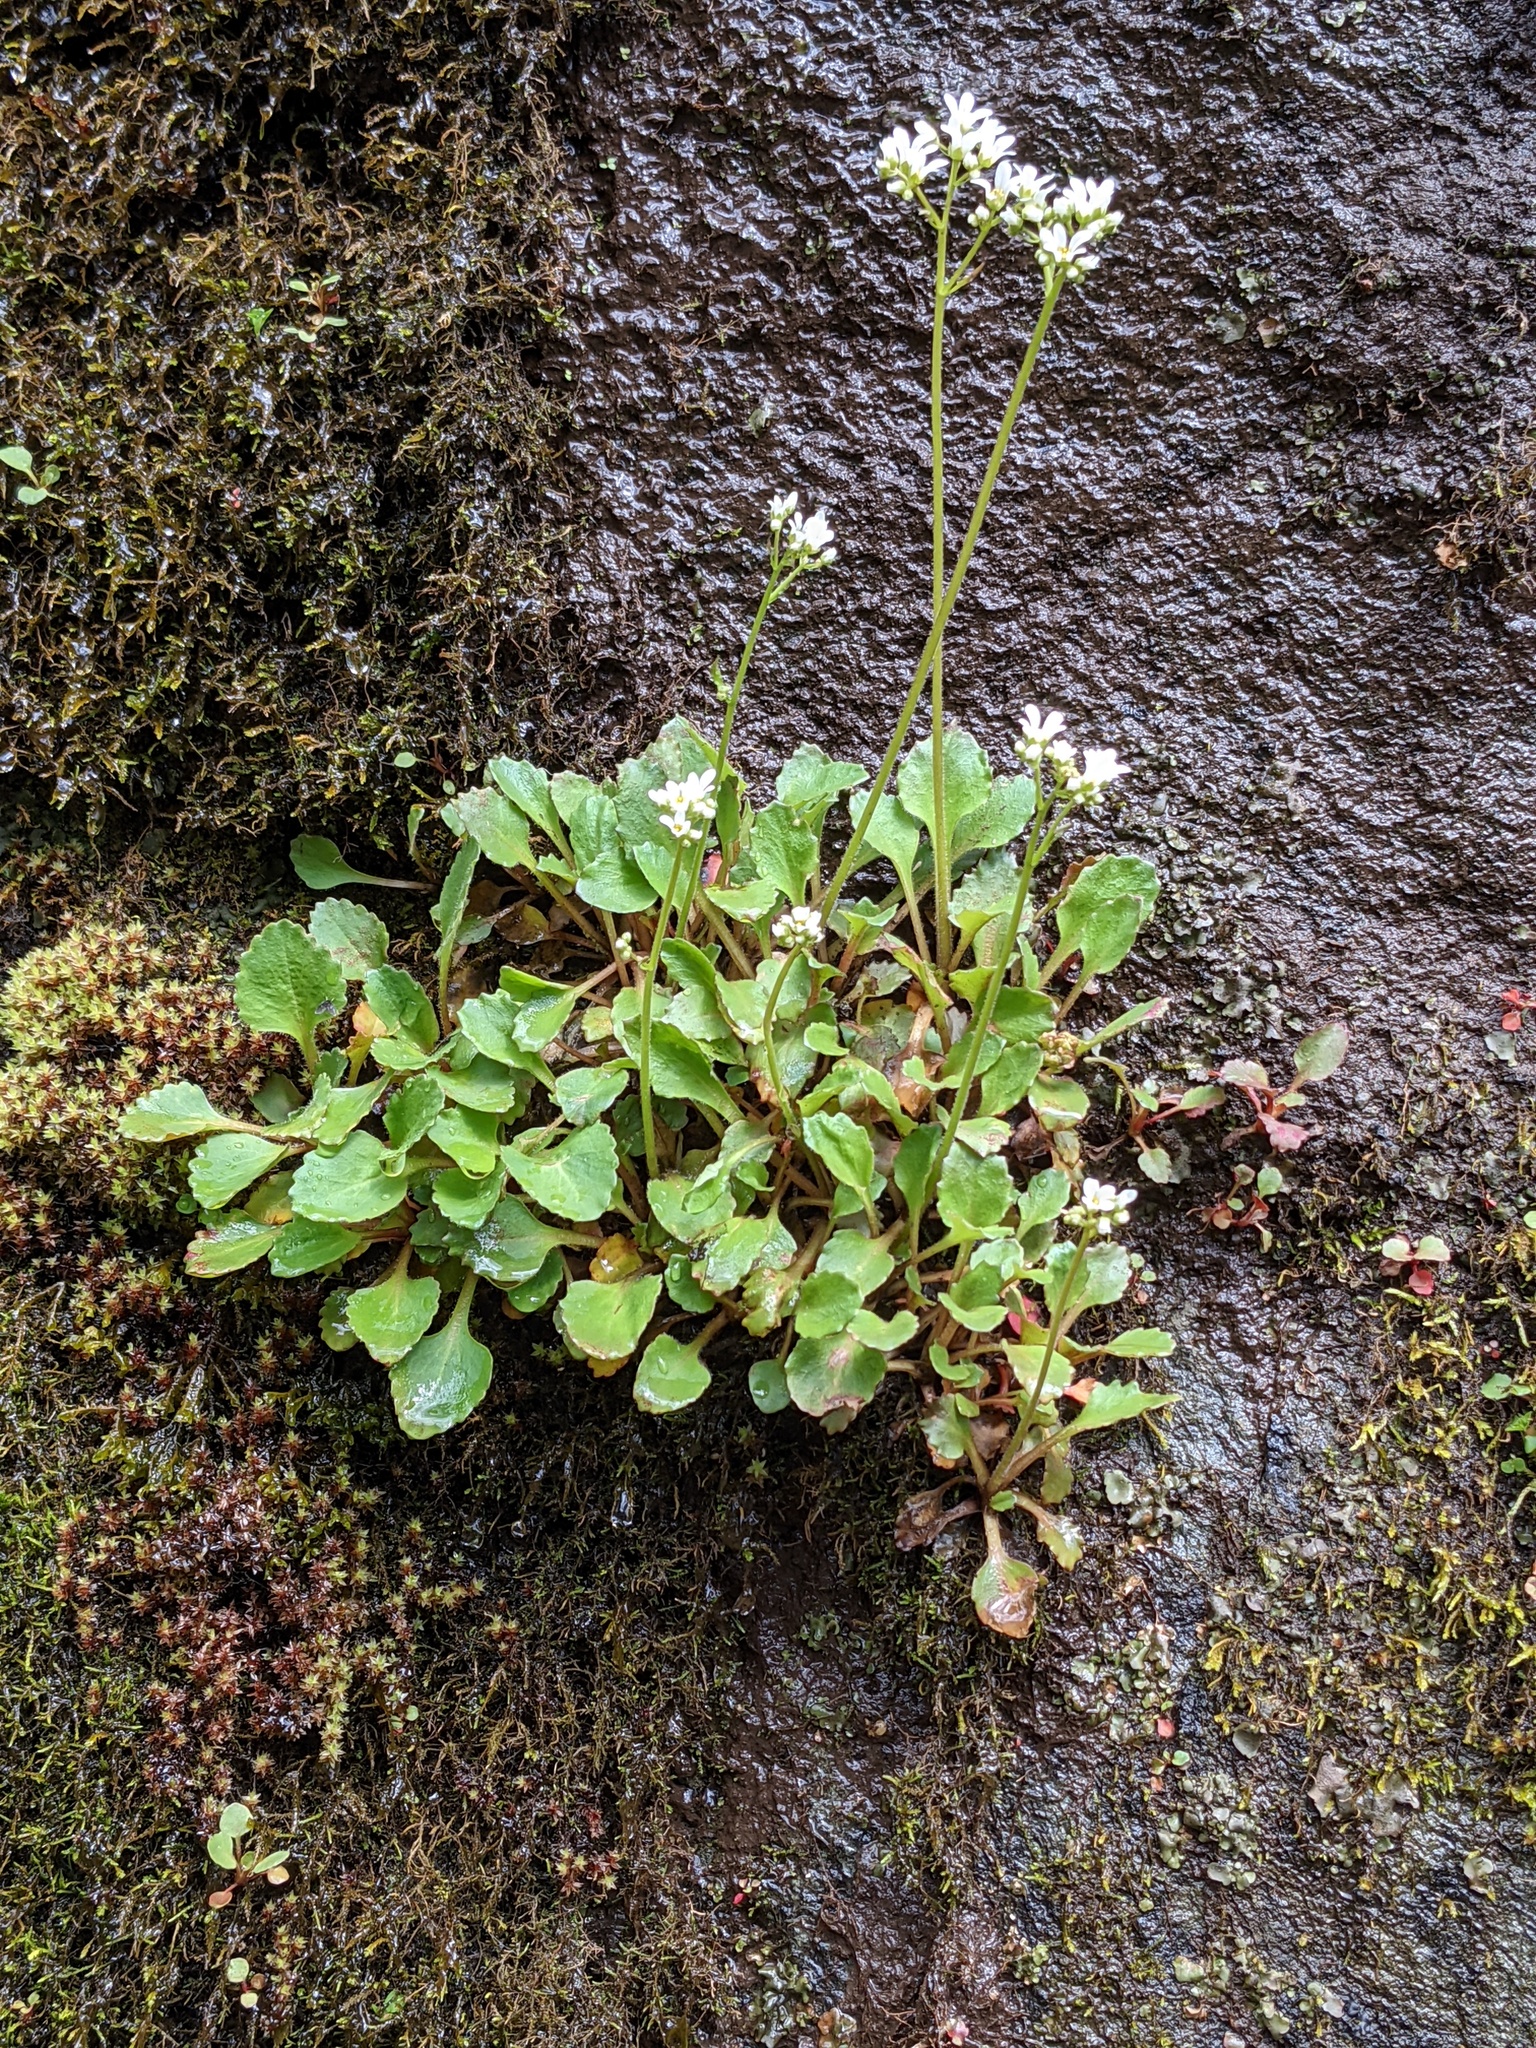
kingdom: Plantae
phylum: Tracheophyta
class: Magnoliopsida
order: Saxifragales
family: Saxifragaceae
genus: Micranthes
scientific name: Micranthes virginiensis
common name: Early saxifrage
